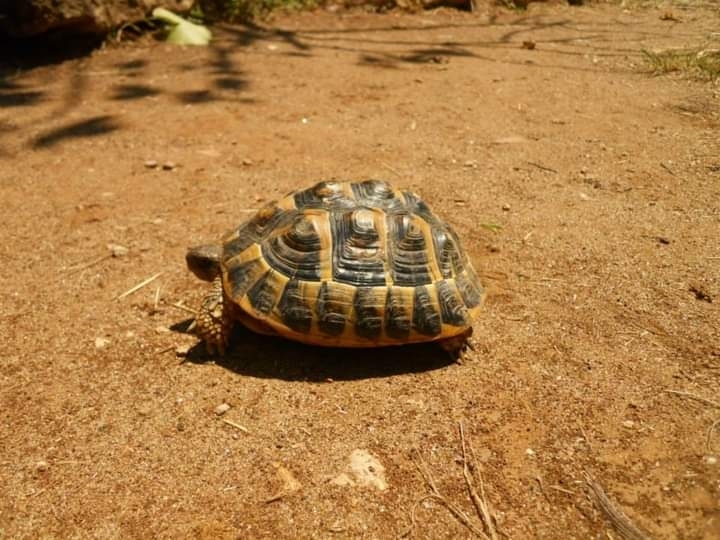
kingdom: Animalia
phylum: Chordata
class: Testudines
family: Testudinidae
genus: Testudo
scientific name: Testudo hermanni
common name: Hermann's tortoise
